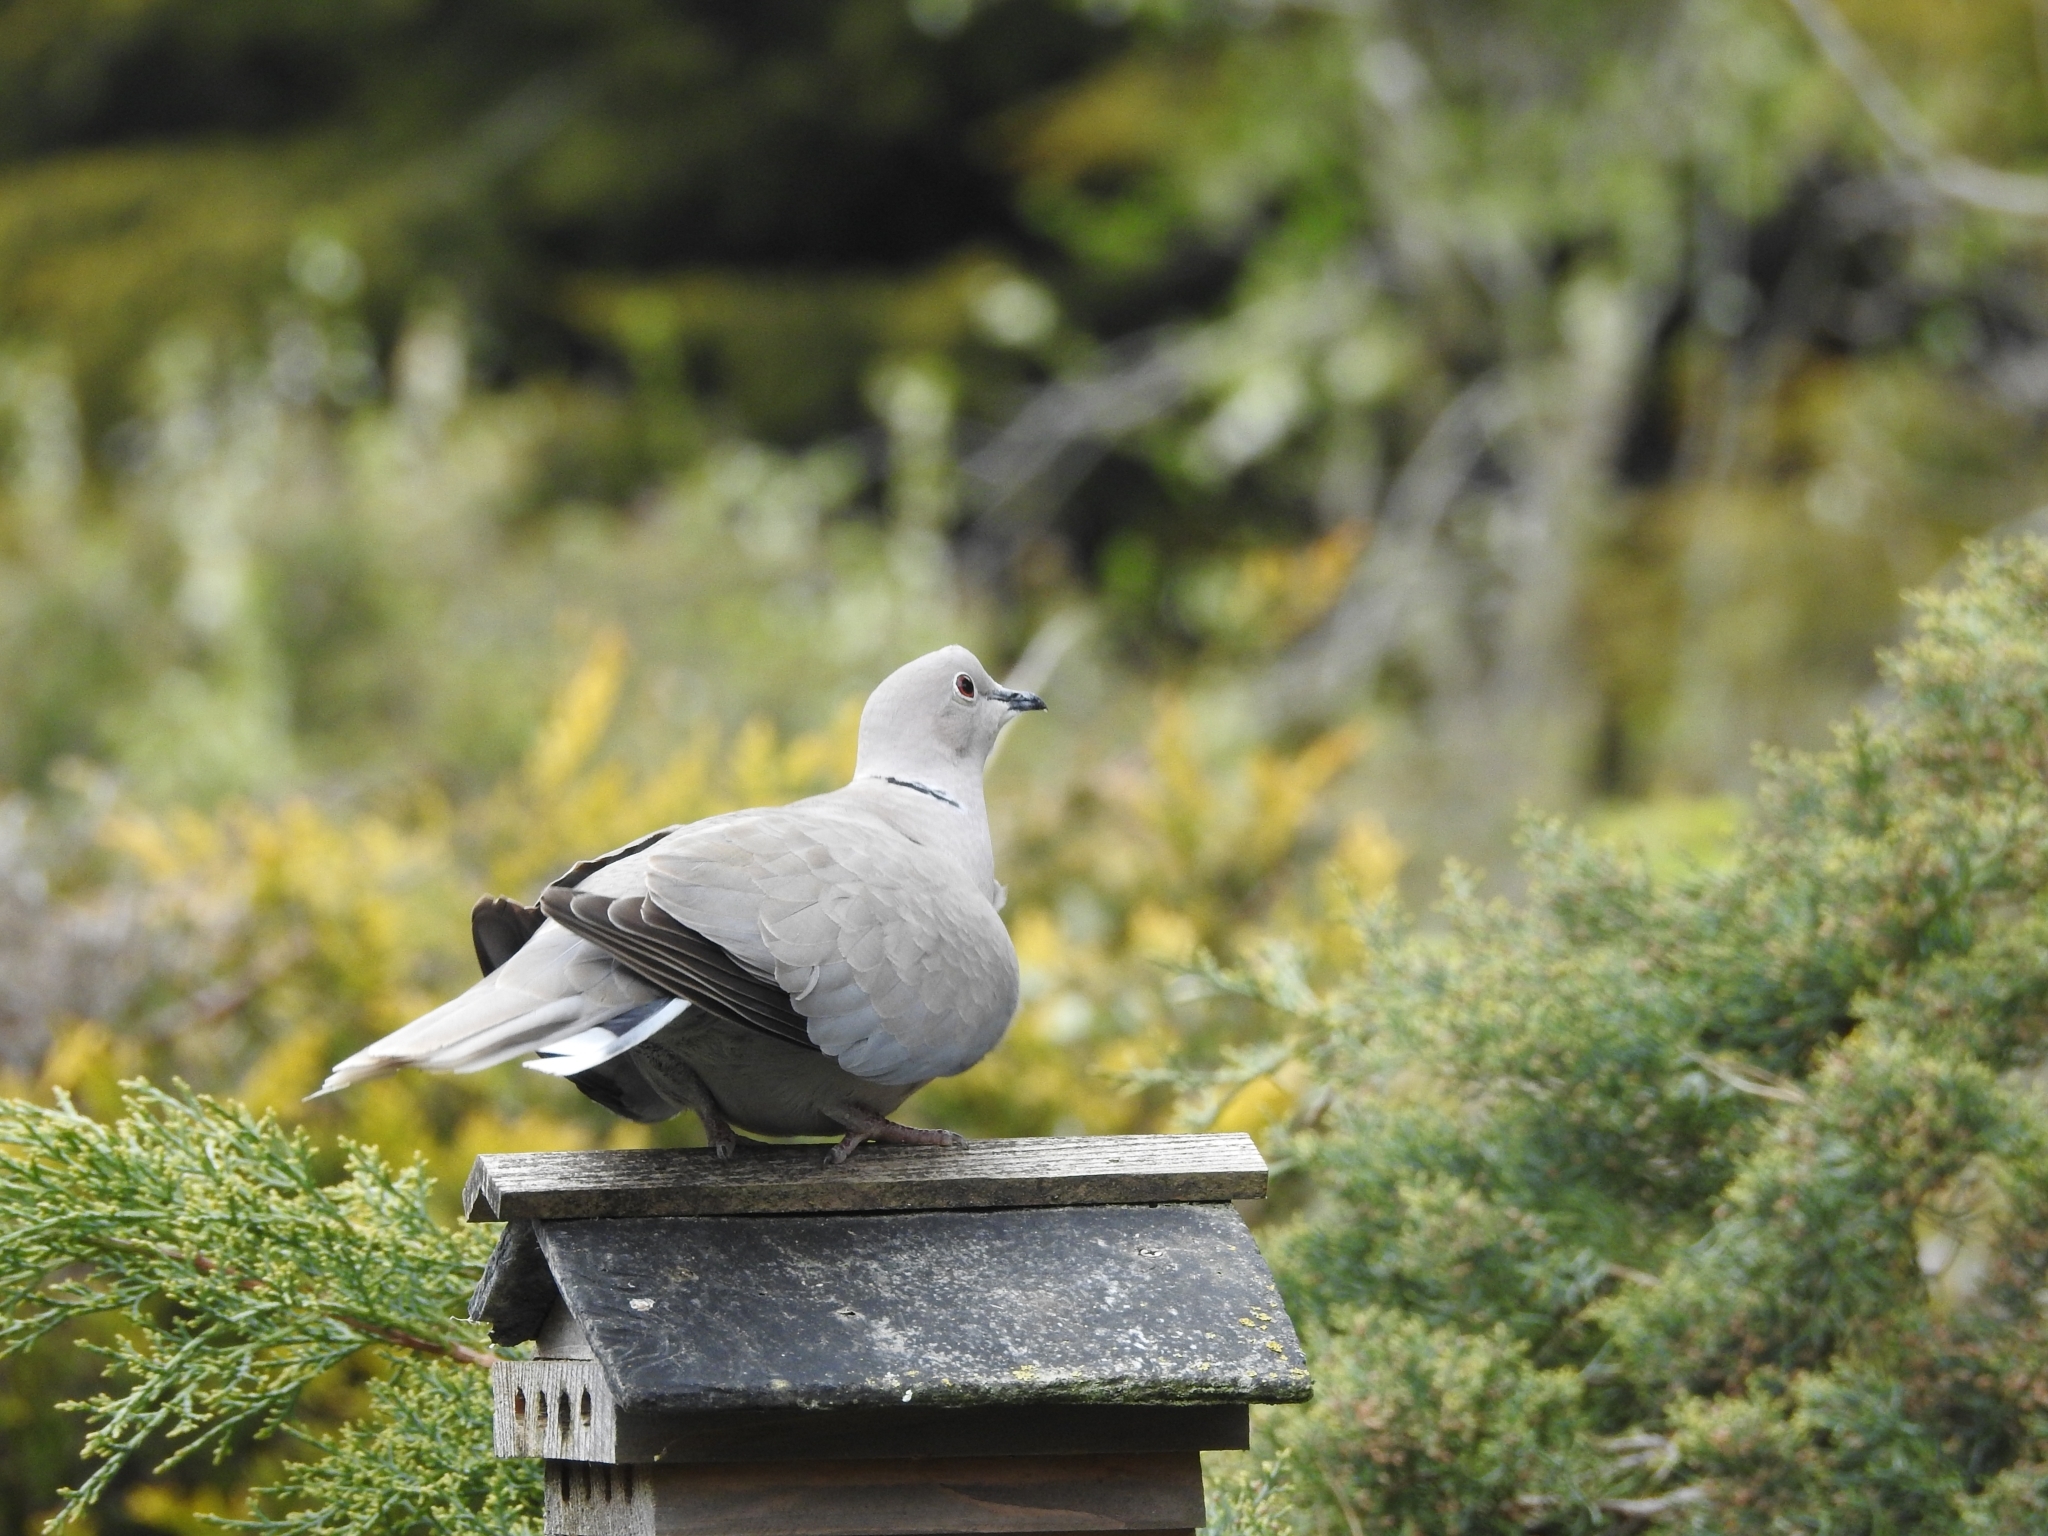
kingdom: Animalia
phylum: Chordata
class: Aves
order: Columbiformes
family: Columbidae
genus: Streptopelia
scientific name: Streptopelia decaocto
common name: Eurasian collared dove
